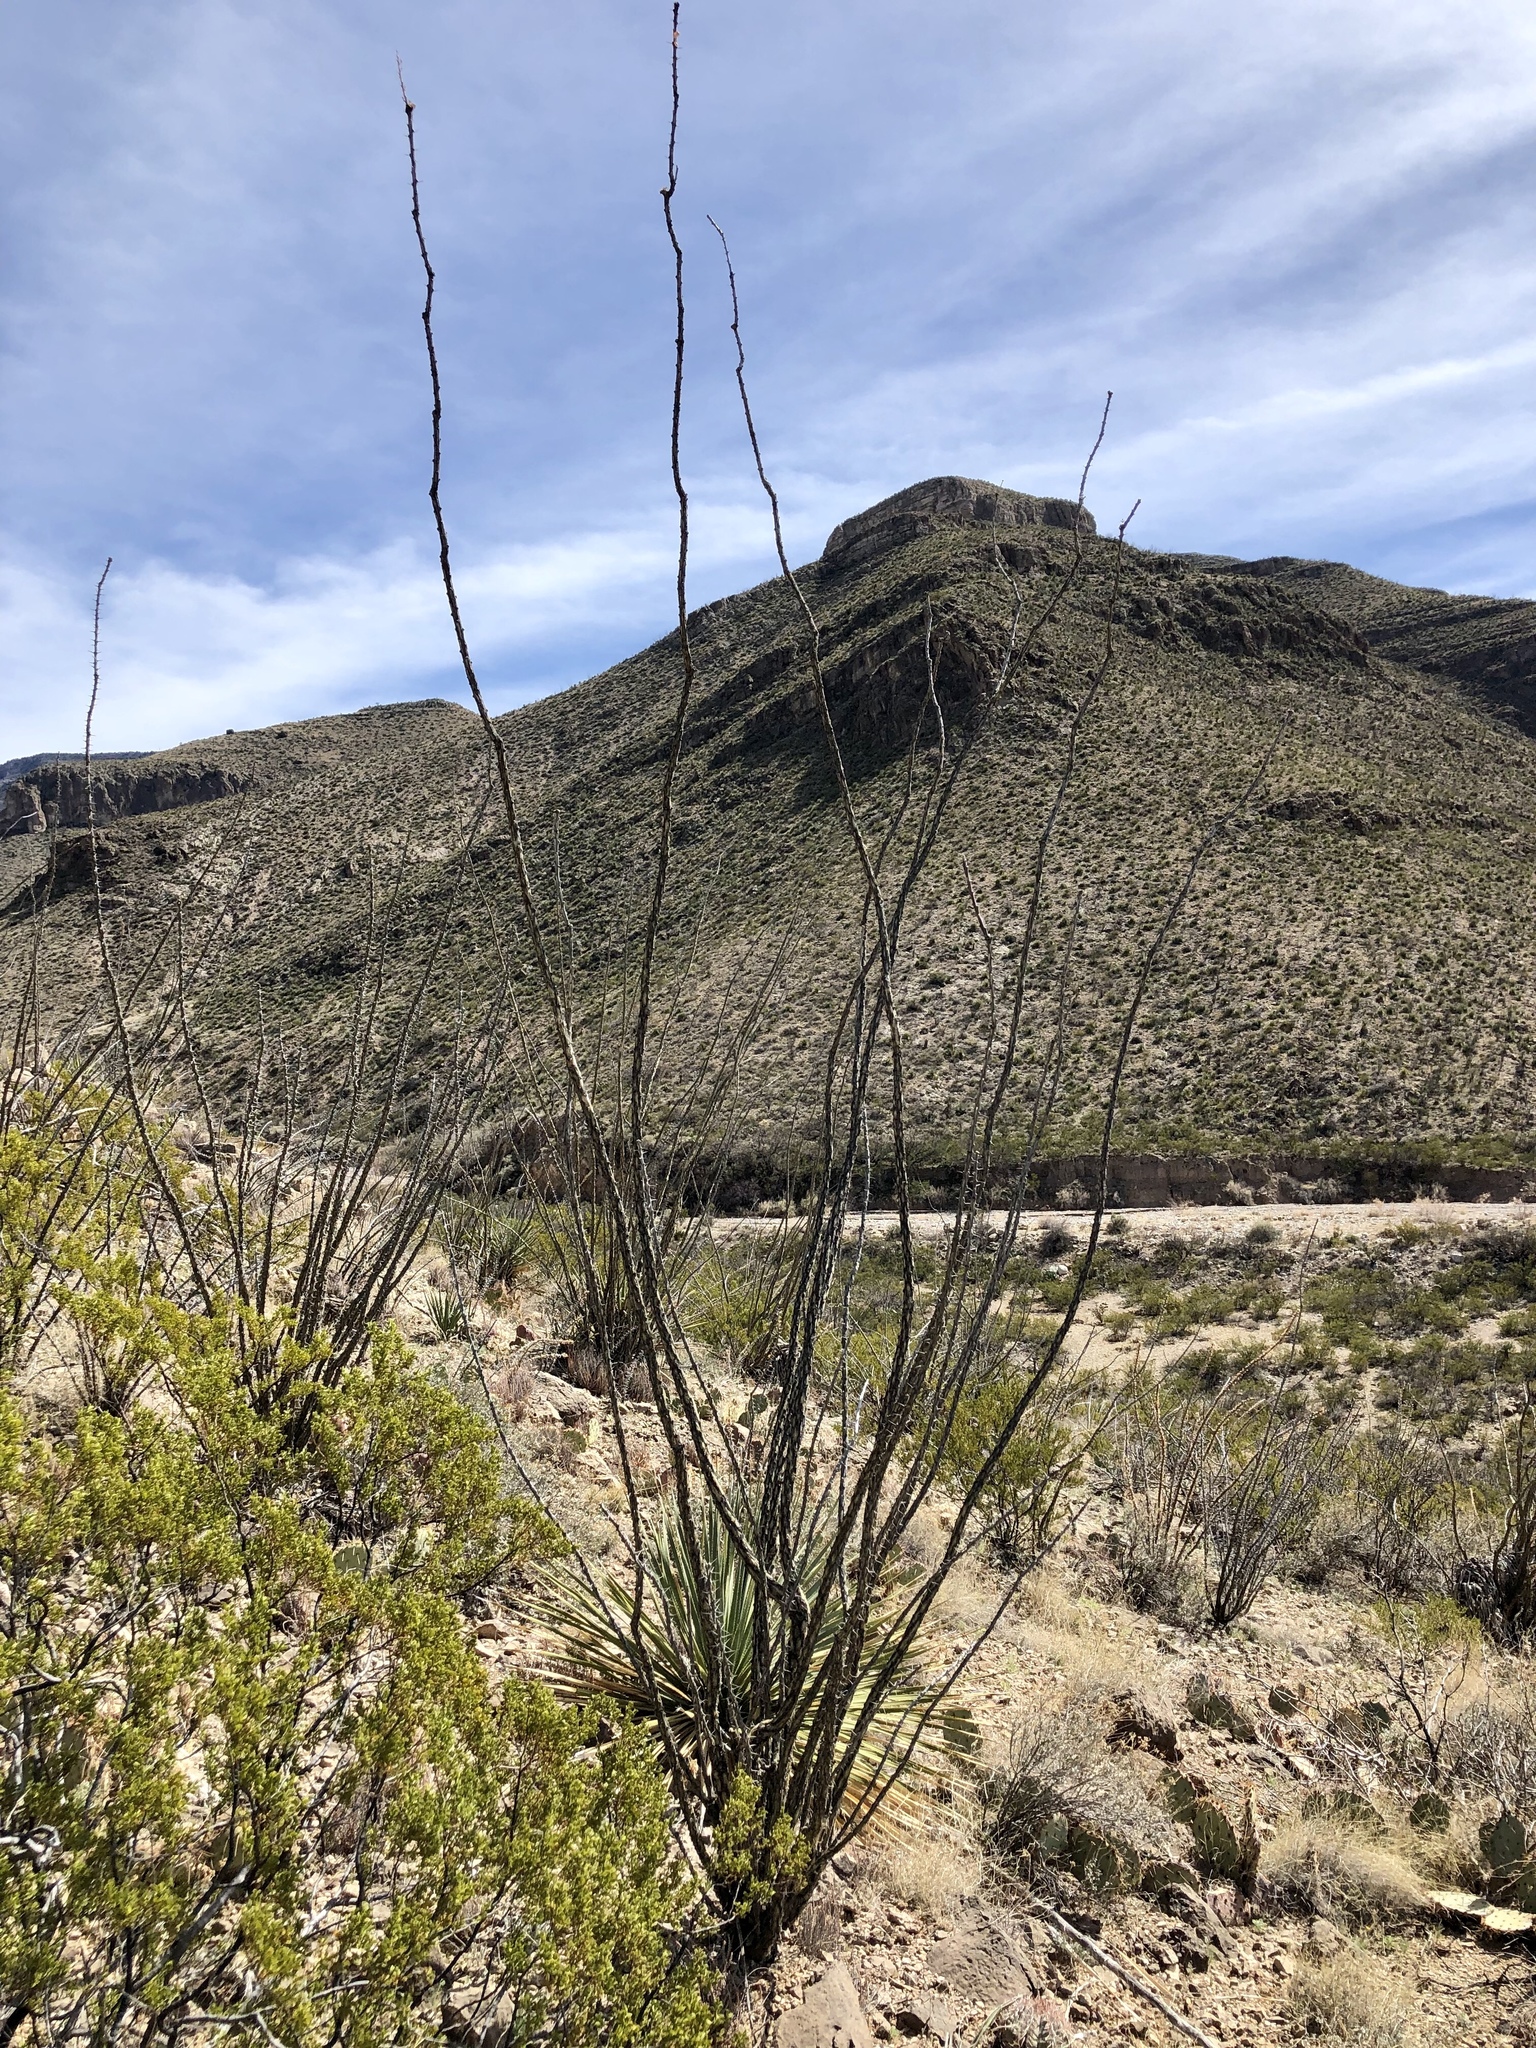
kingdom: Plantae
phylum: Tracheophyta
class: Magnoliopsida
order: Ericales
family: Fouquieriaceae
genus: Fouquieria
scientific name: Fouquieria splendens
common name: Vine-cactus
